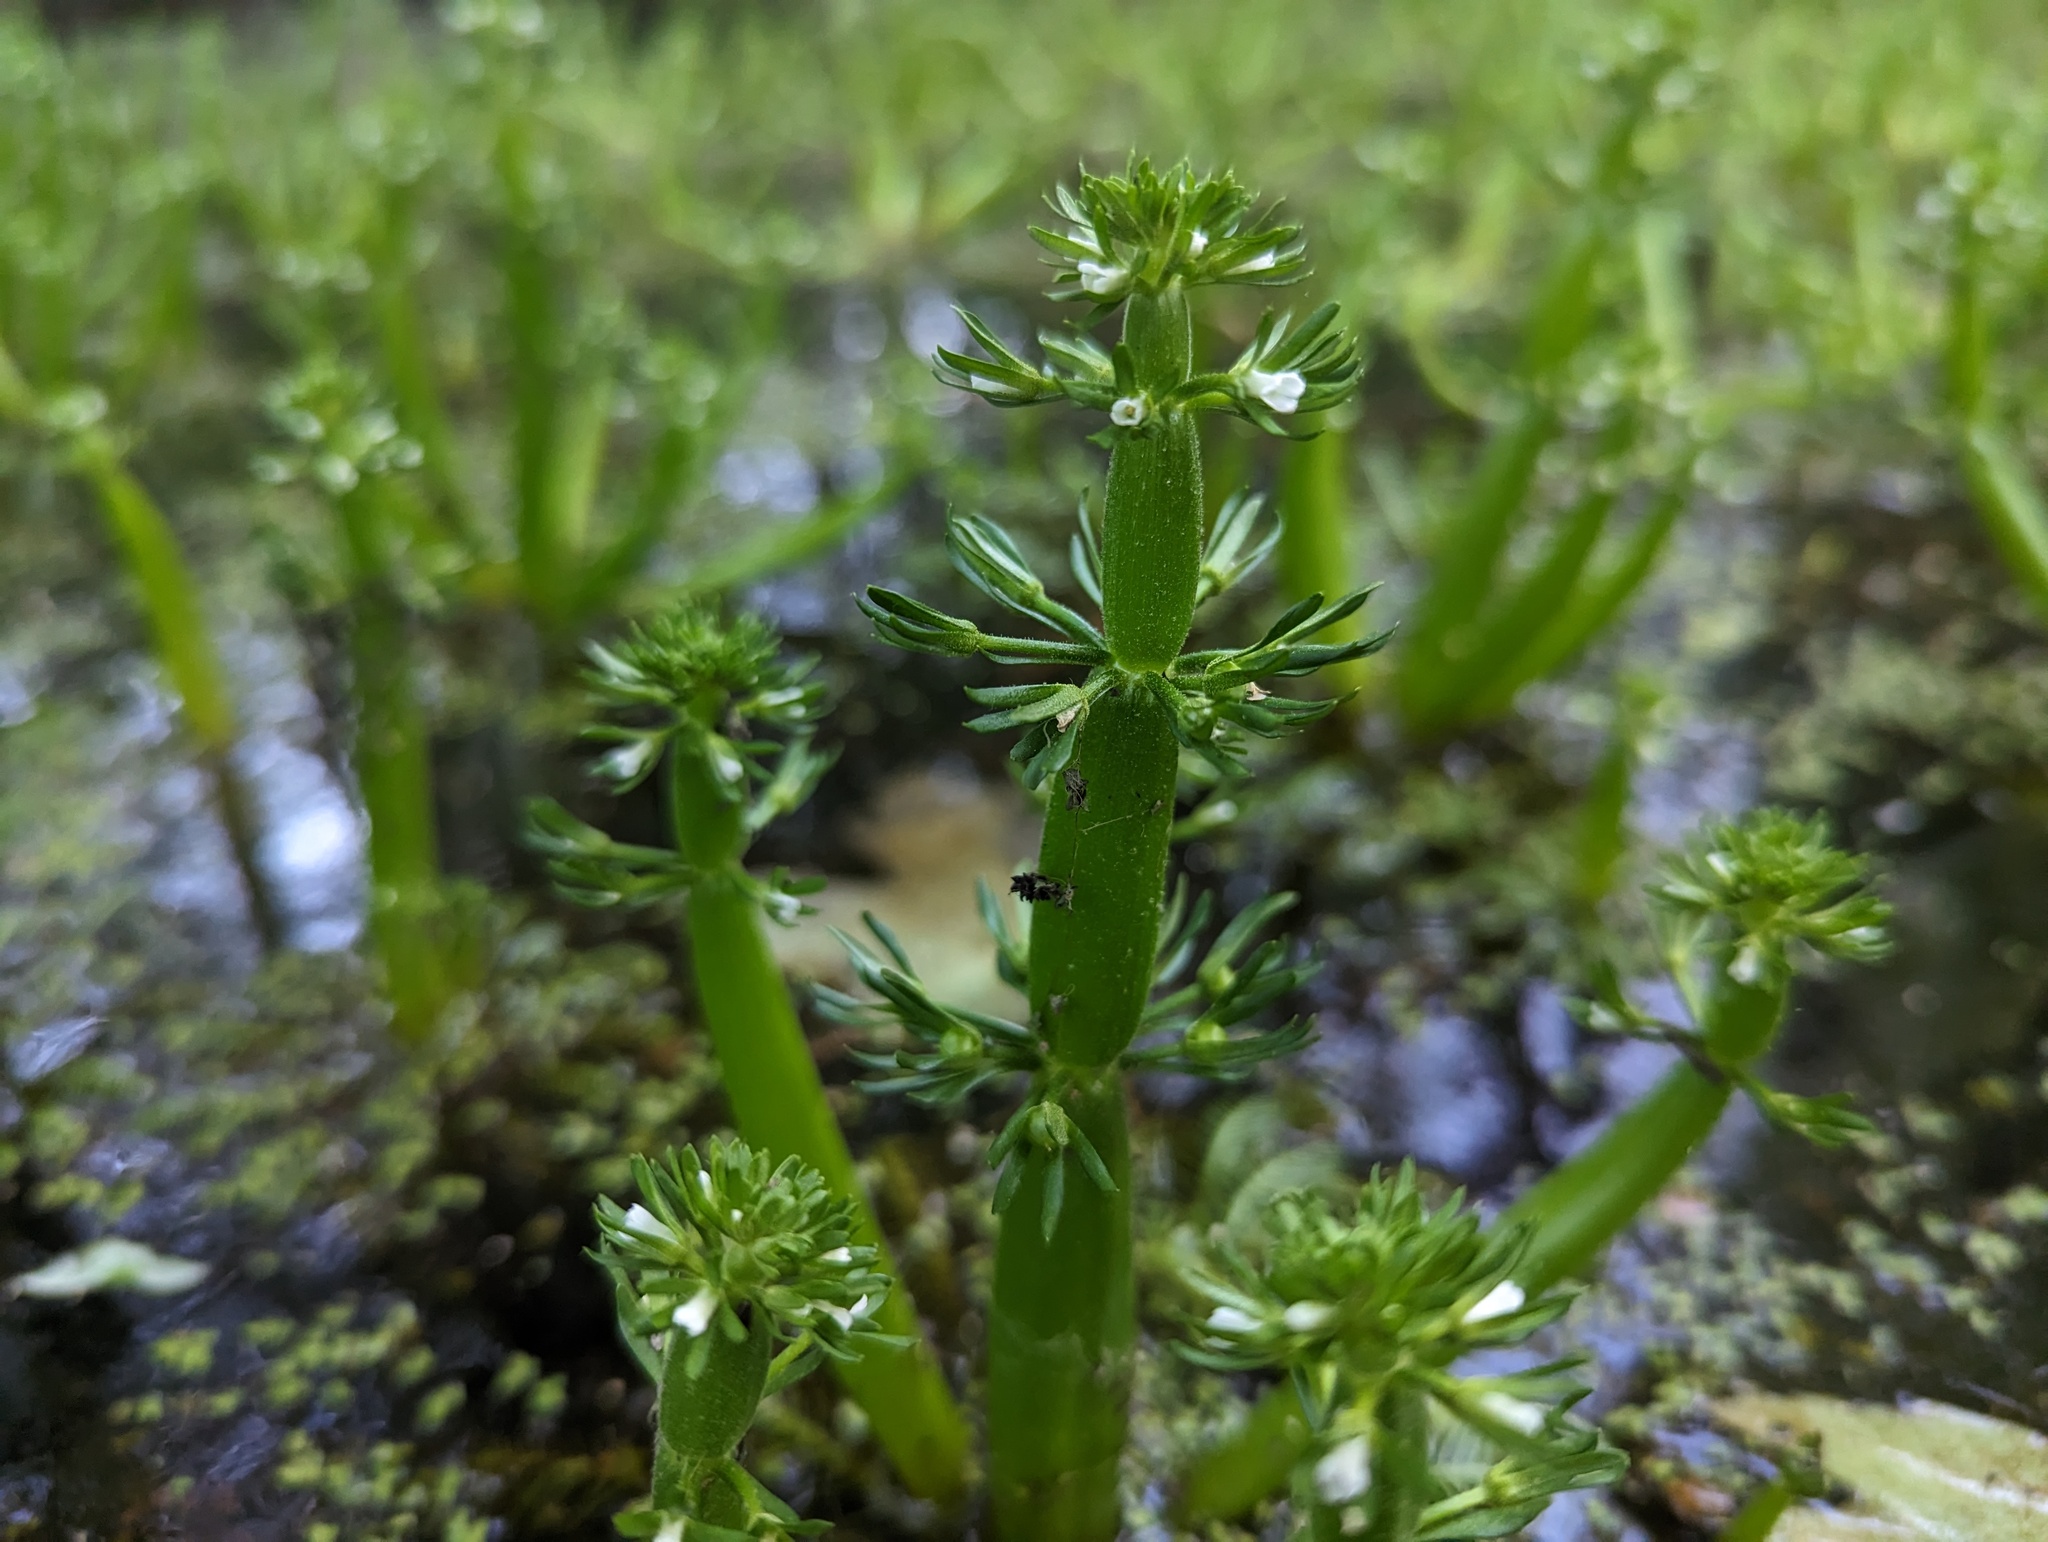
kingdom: Plantae
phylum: Tracheophyta
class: Magnoliopsida
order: Ericales
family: Primulaceae
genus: Hottonia
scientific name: Hottonia inflata
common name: American featherfoil
